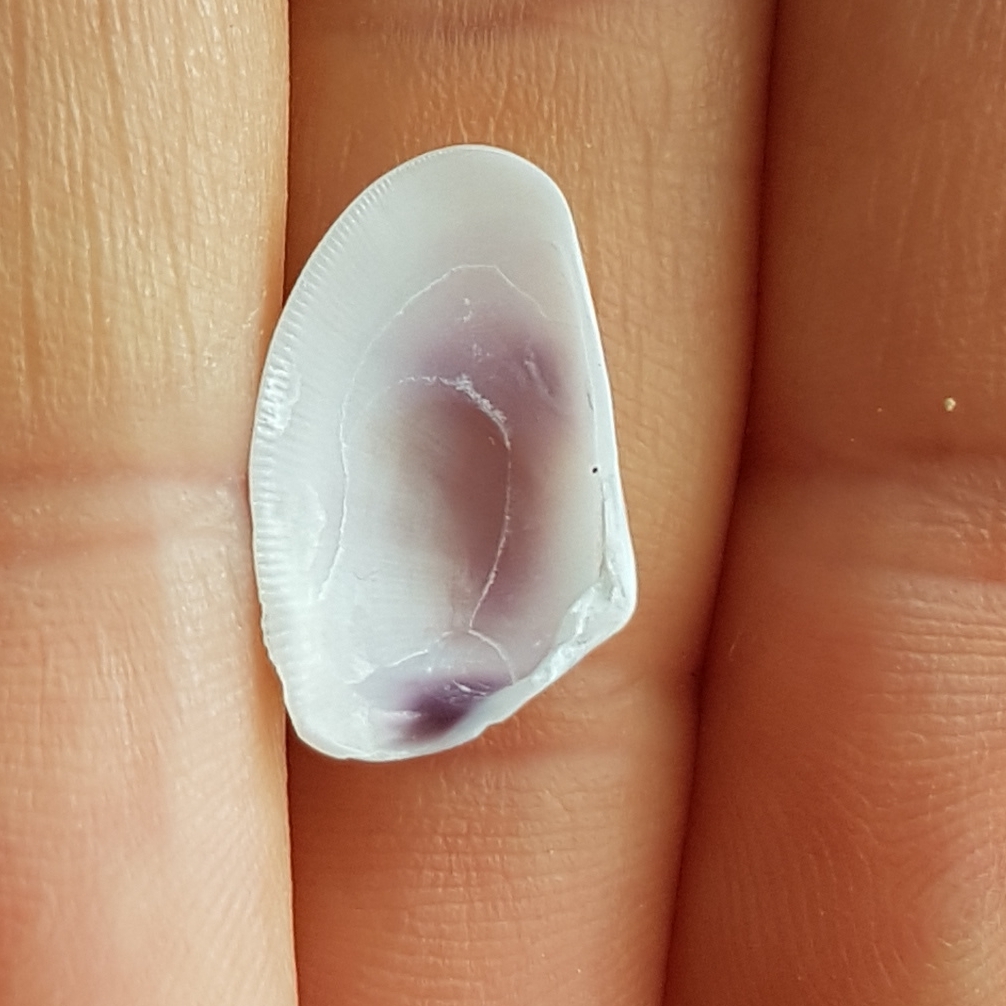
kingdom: Animalia
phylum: Mollusca
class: Bivalvia
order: Cardiida
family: Donacidae
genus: Donax
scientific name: Donax trunculus
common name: Truncate donax
